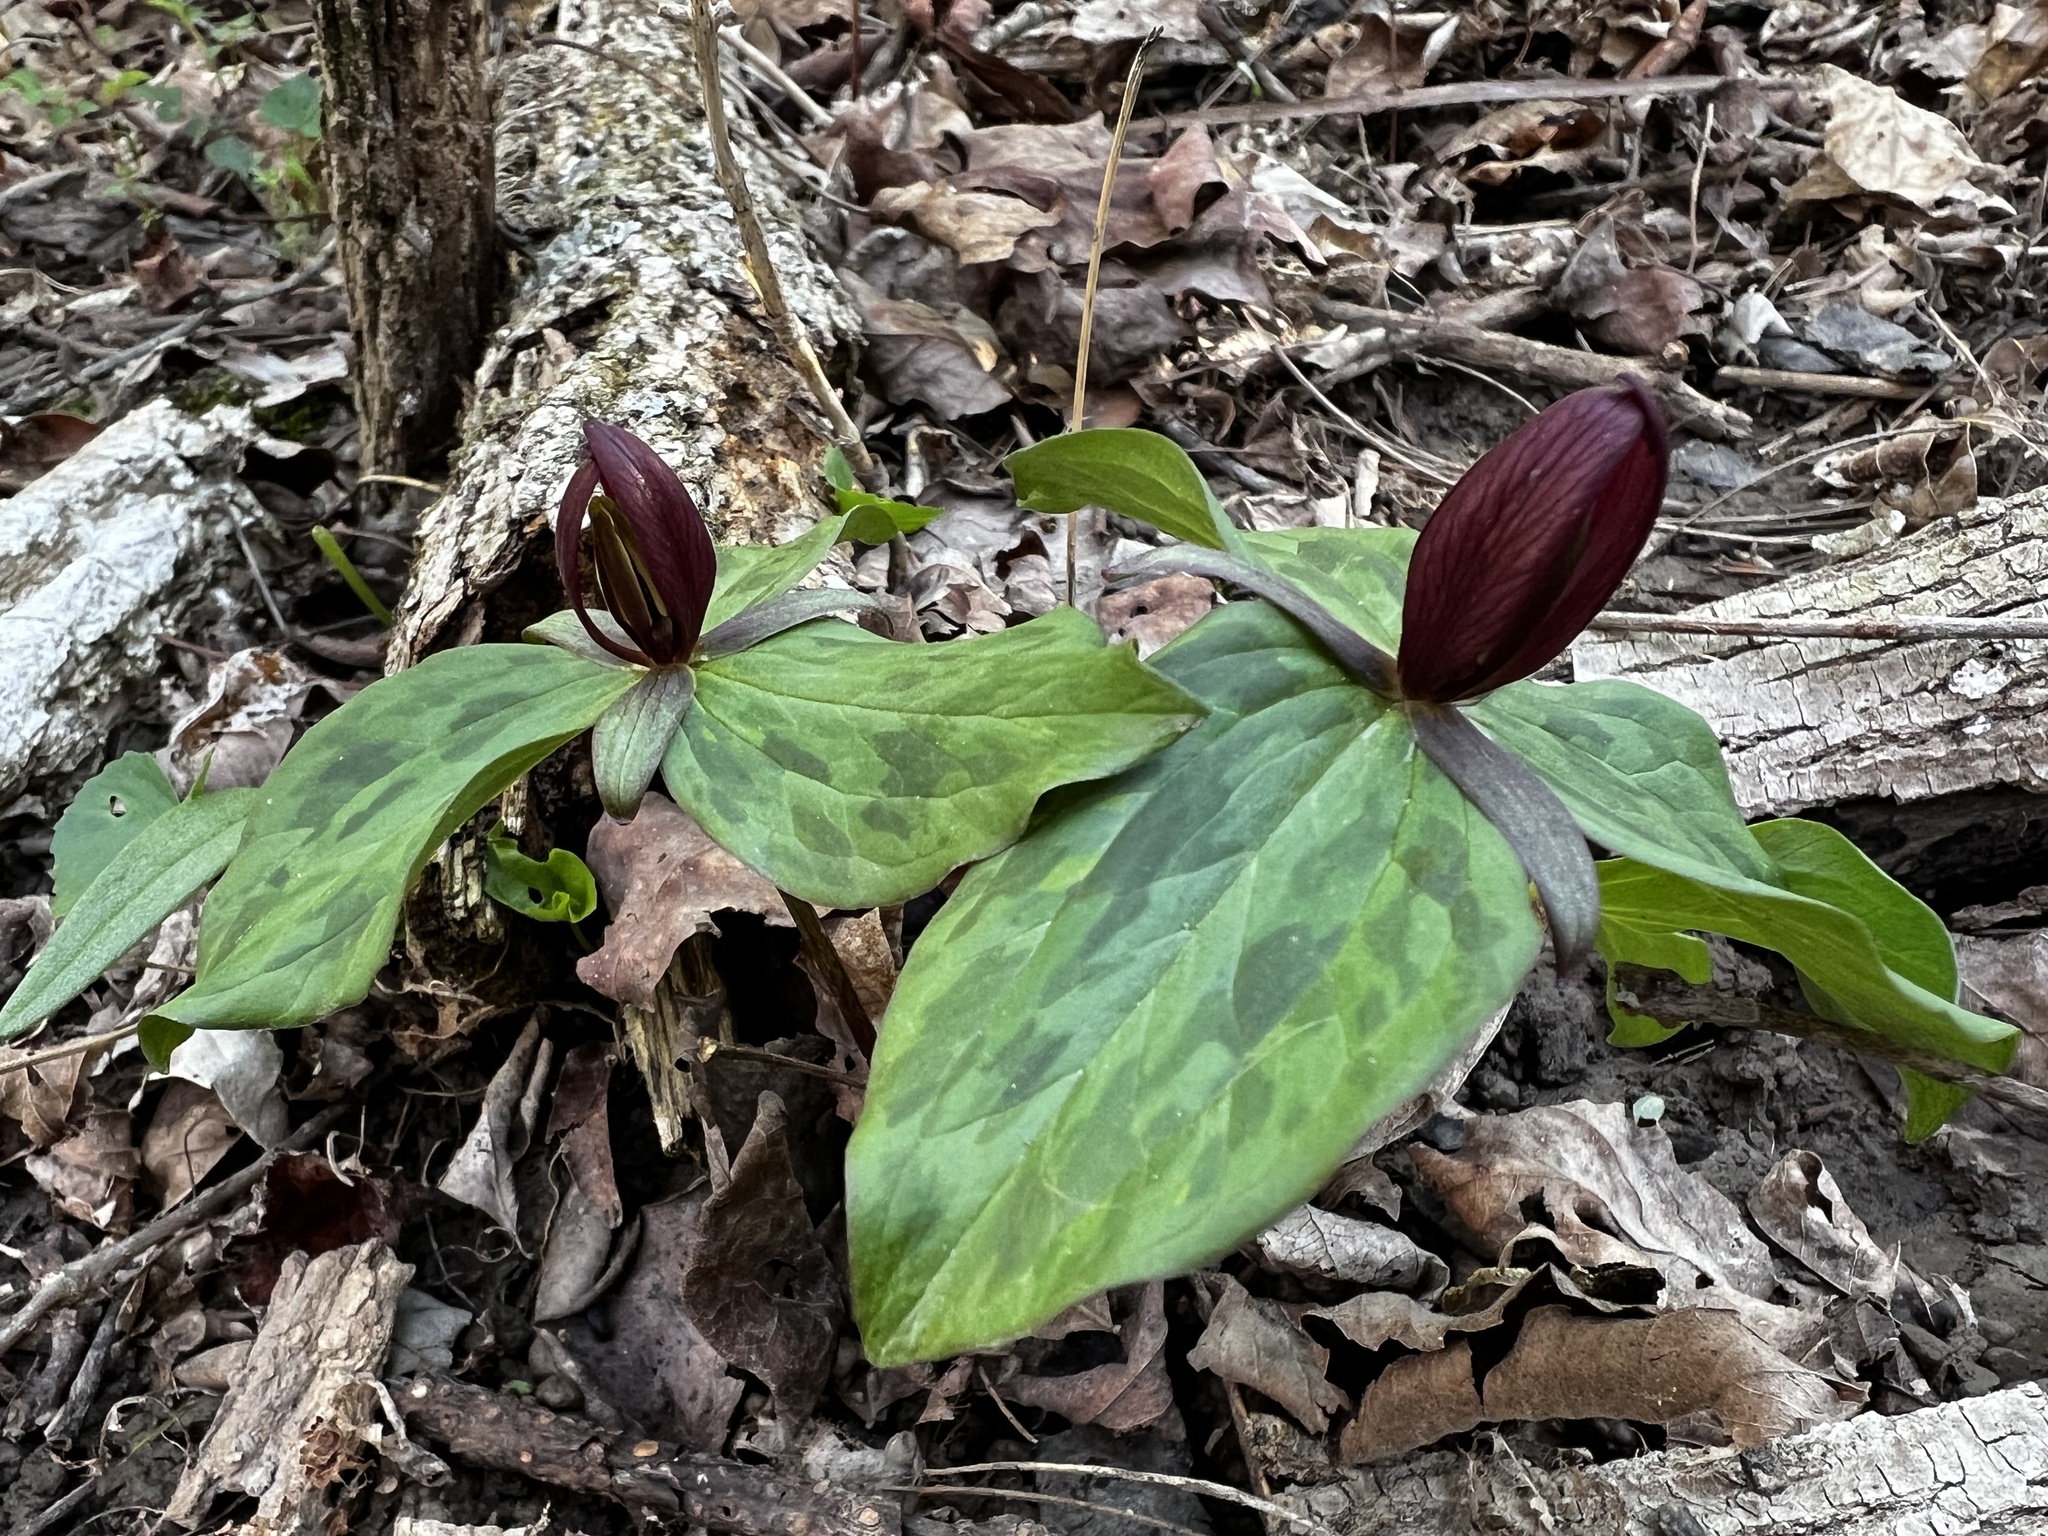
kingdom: Plantae
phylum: Tracheophyta
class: Liliopsida
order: Liliales
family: Melanthiaceae
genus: Trillium
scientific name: Trillium sessile
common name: Sessile trillium
